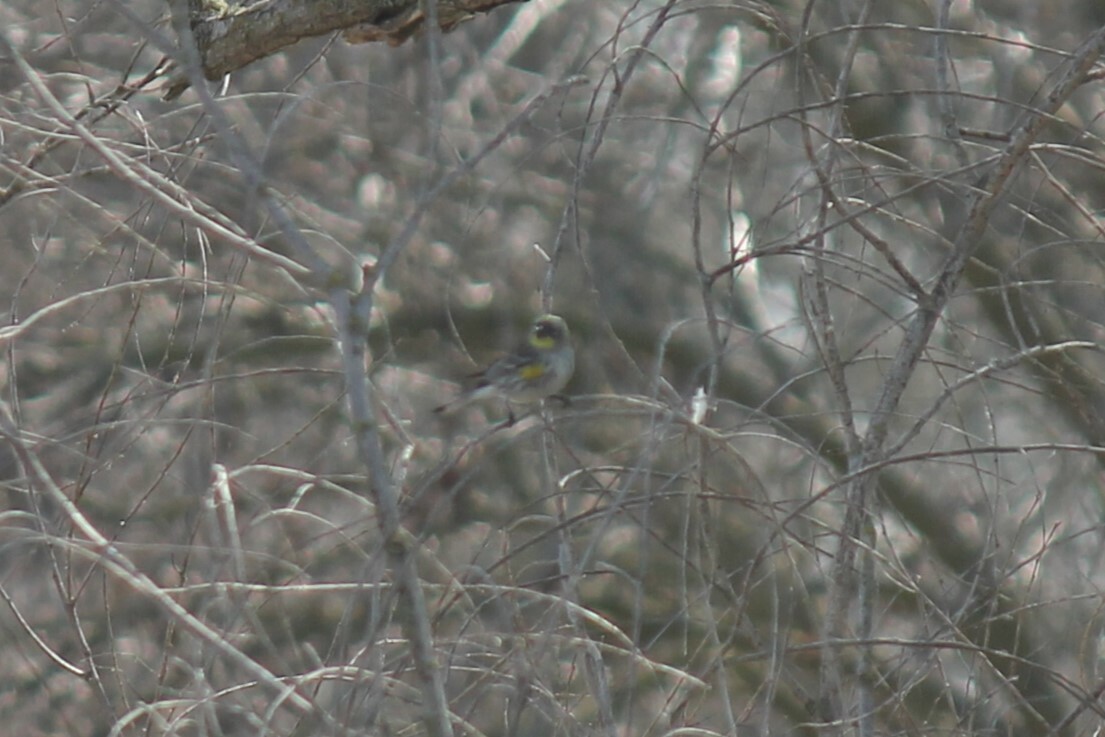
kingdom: Animalia
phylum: Chordata
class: Aves
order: Passeriformes
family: Parulidae
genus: Setophaga
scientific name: Setophaga coronata
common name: Myrtle warbler
